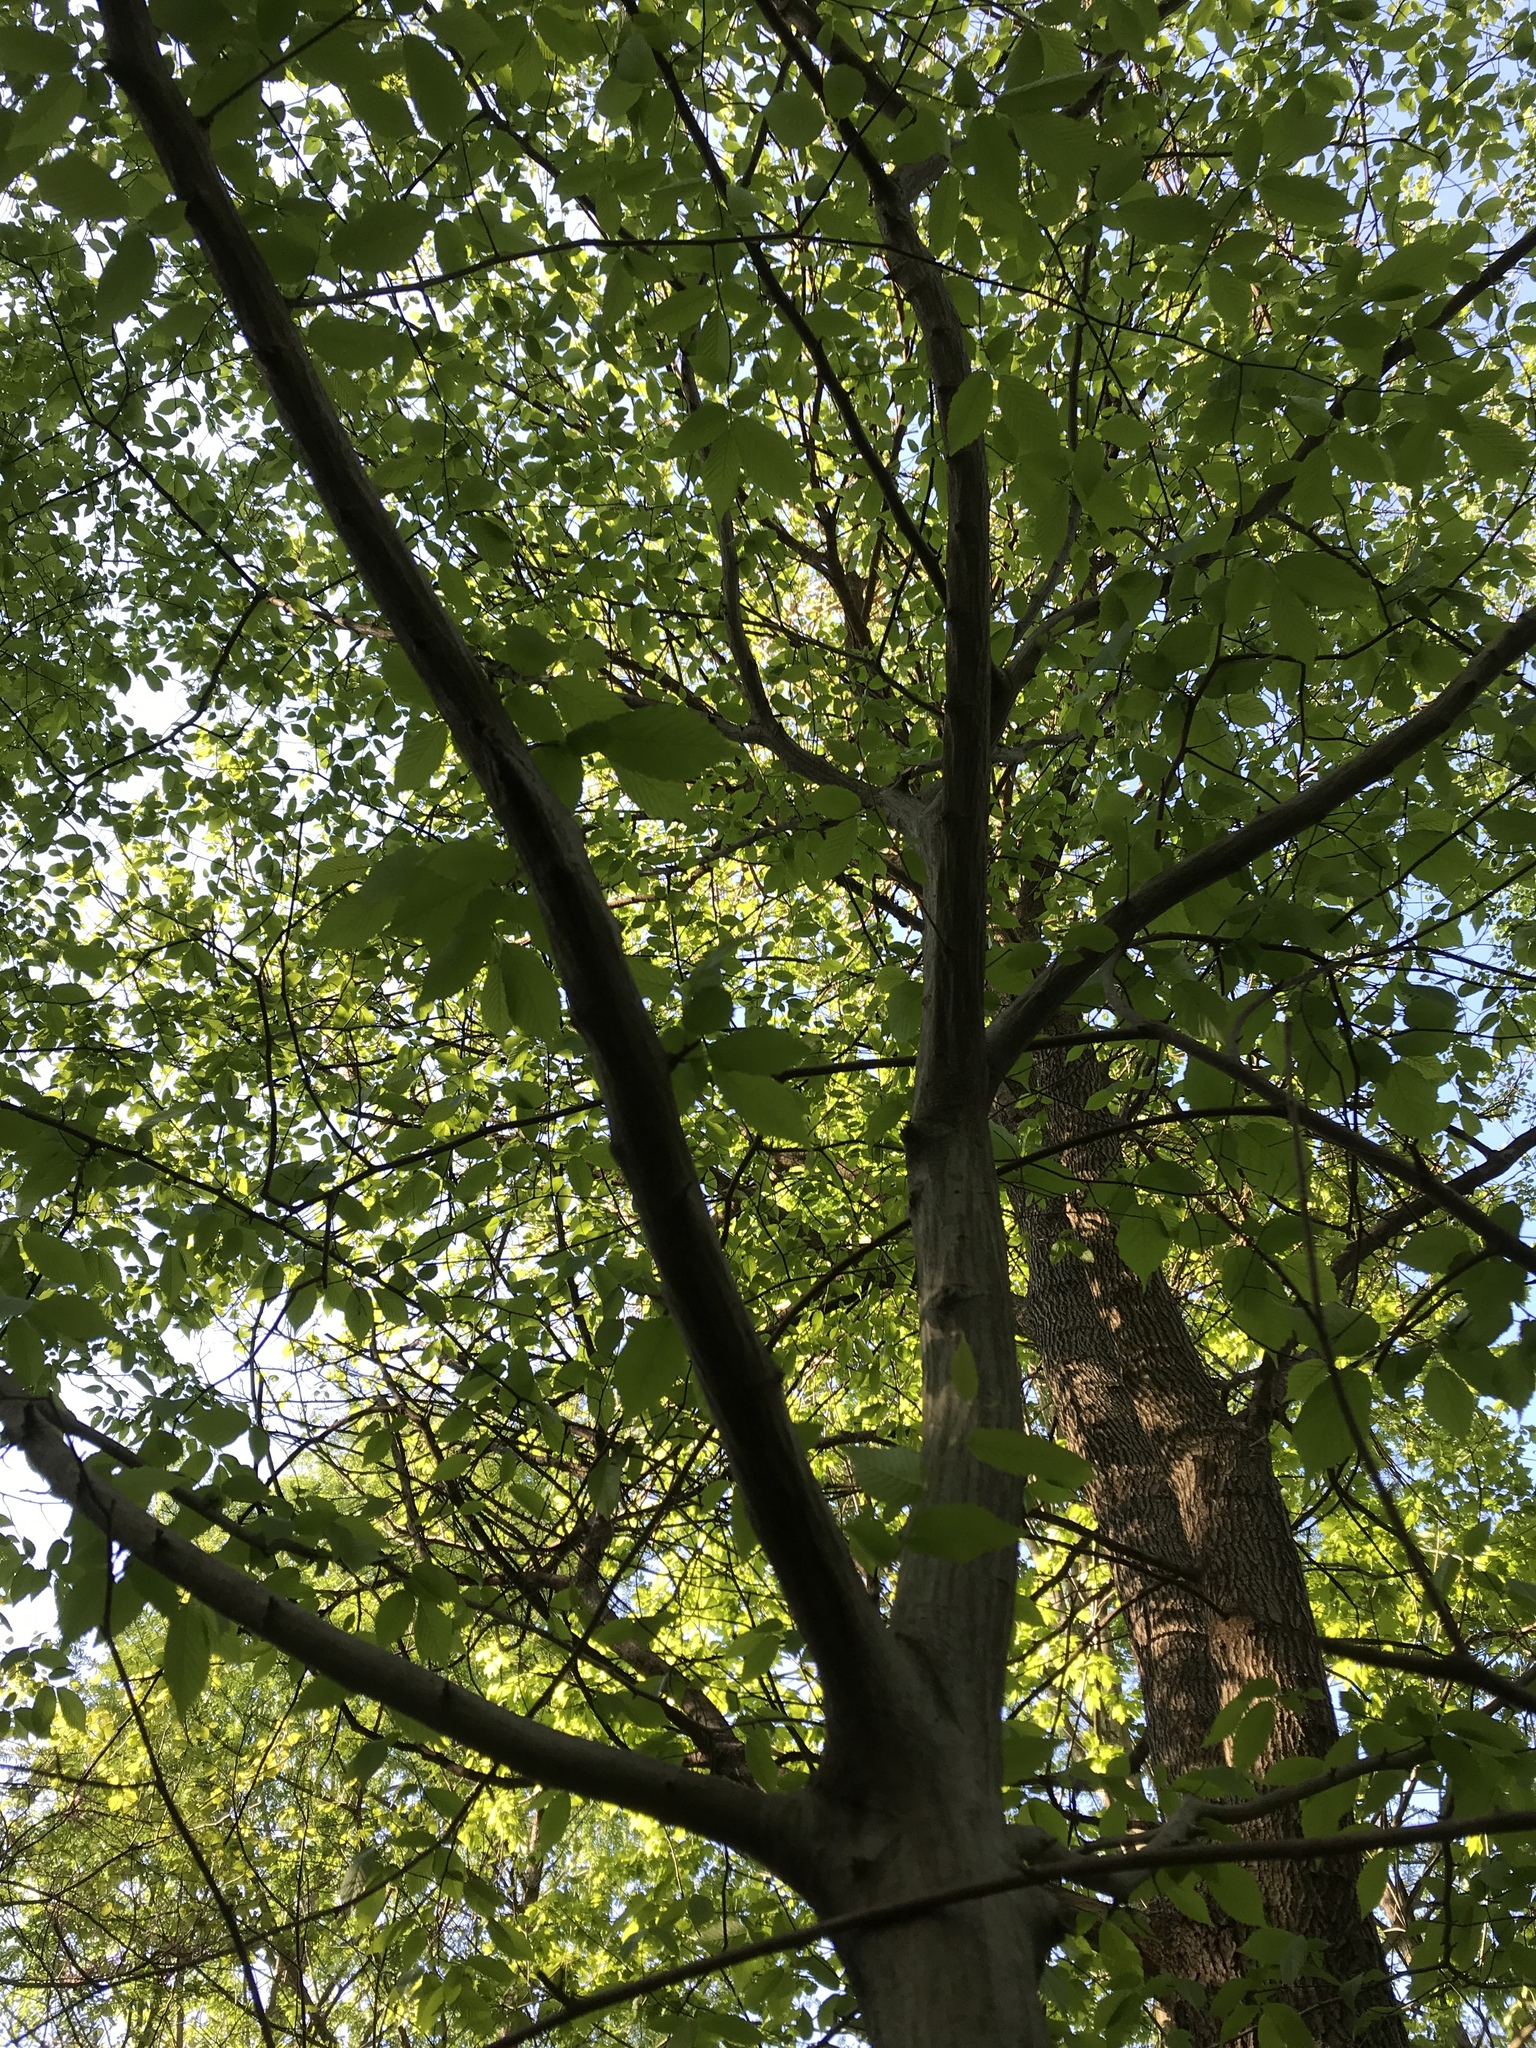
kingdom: Plantae
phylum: Tracheophyta
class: Magnoliopsida
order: Fagales
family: Betulaceae
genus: Carpinus
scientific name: Carpinus caroliniana
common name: American hornbeam
